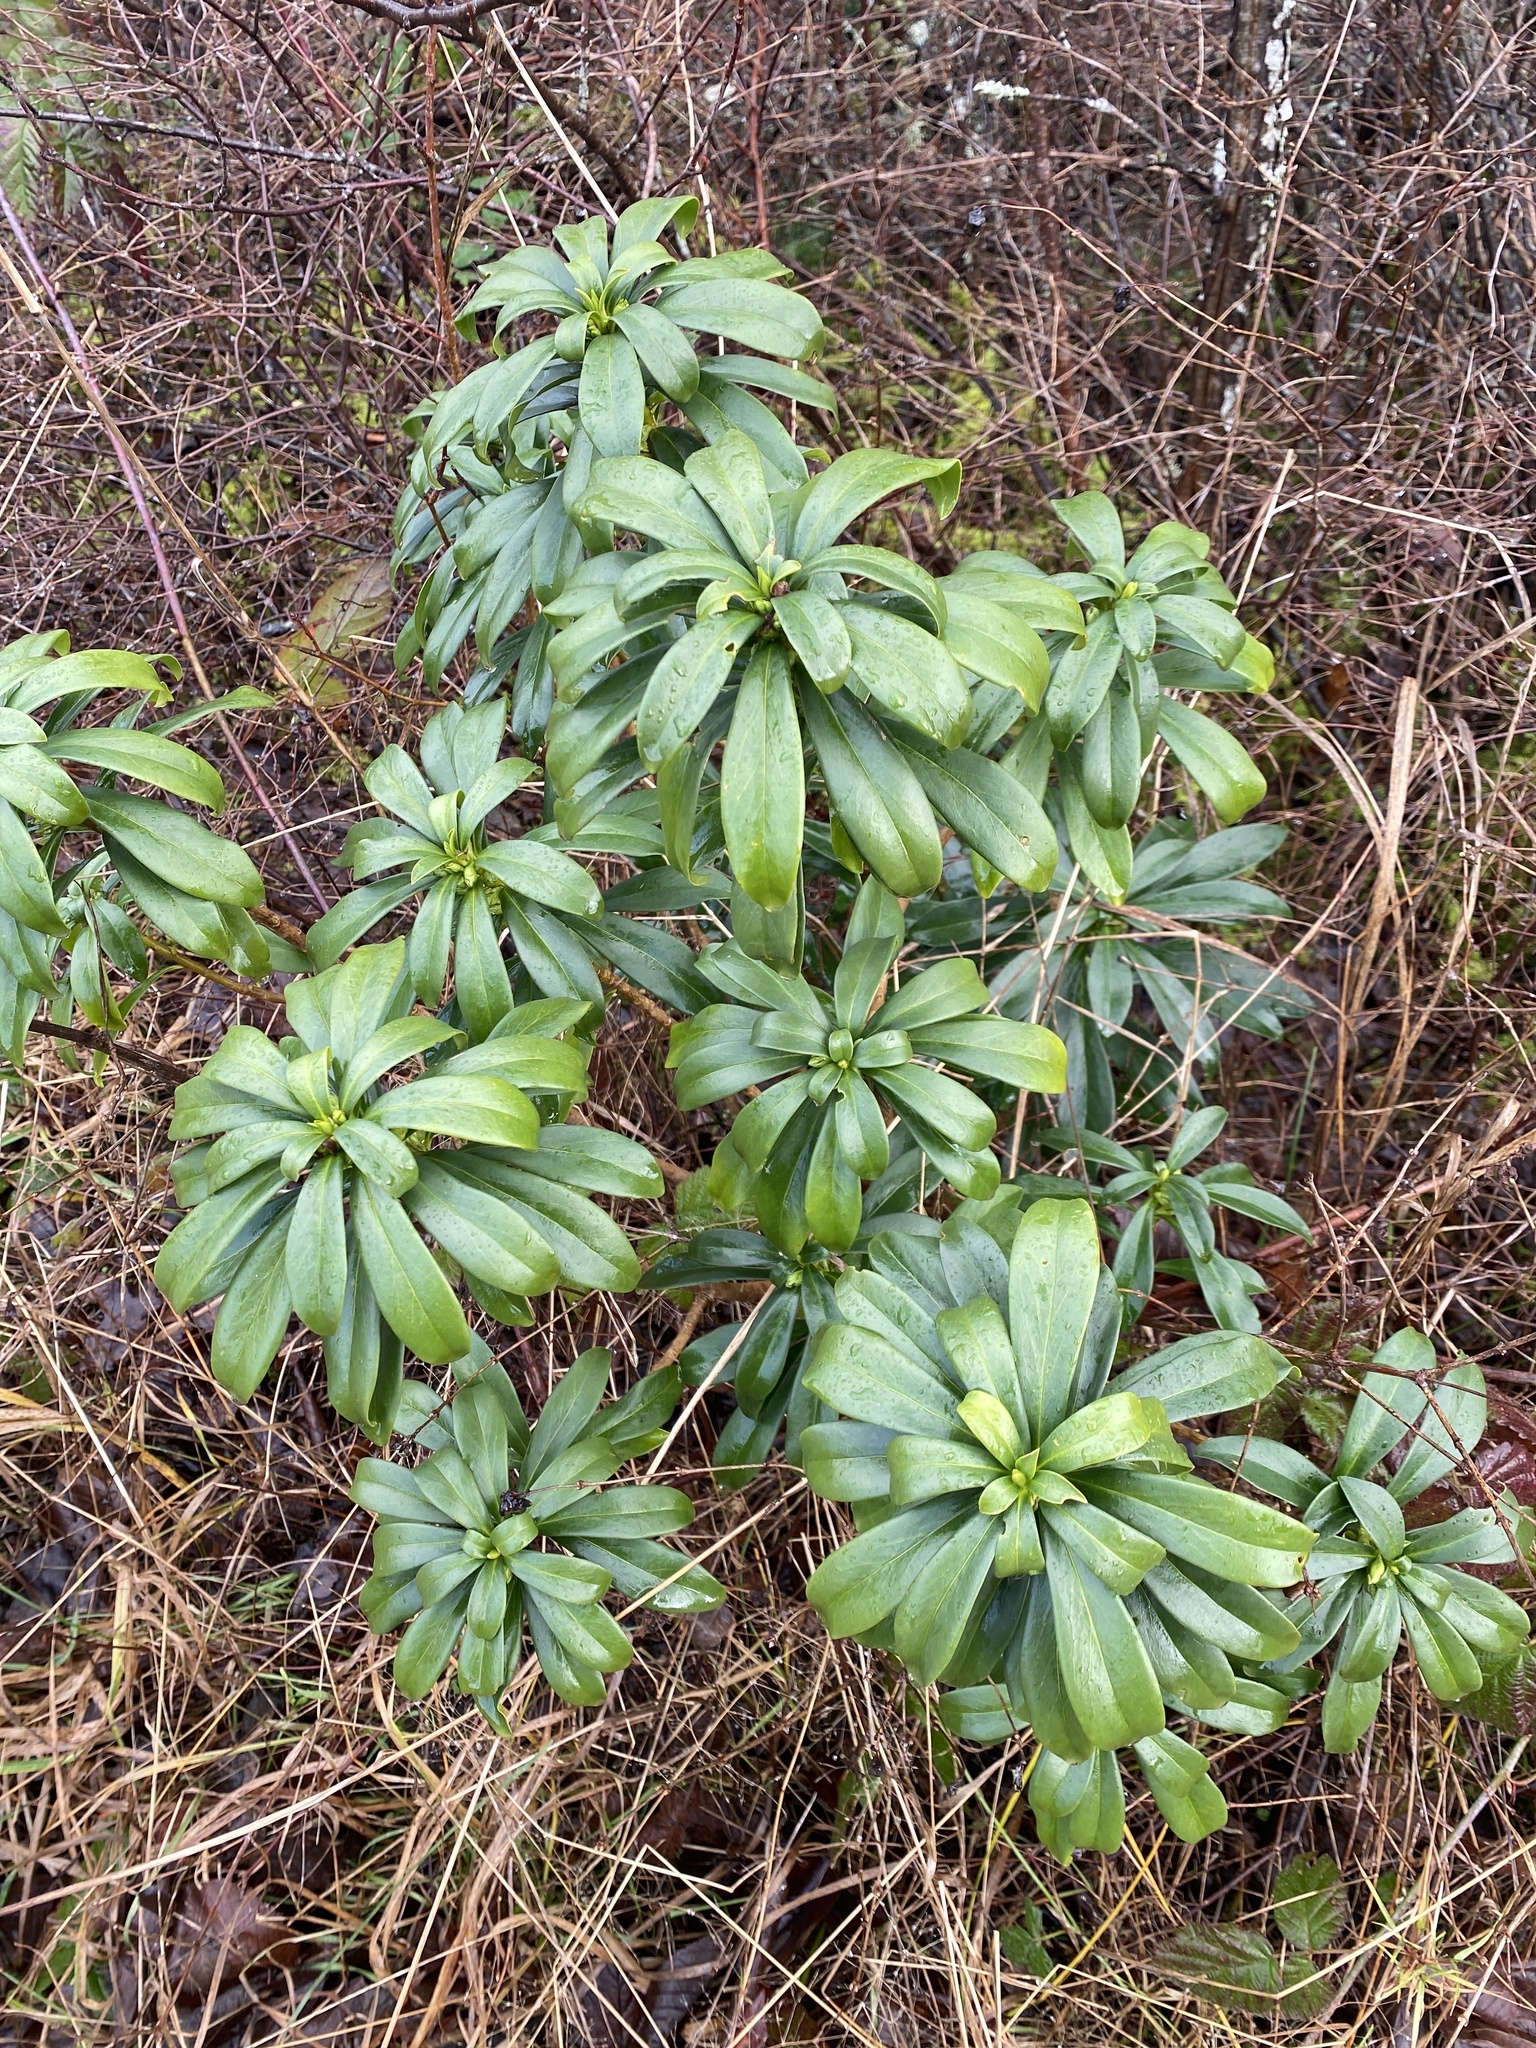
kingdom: Plantae
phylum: Tracheophyta
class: Magnoliopsida
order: Malvales
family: Thymelaeaceae
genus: Daphne
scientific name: Daphne laureola
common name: Spurge-laurel
